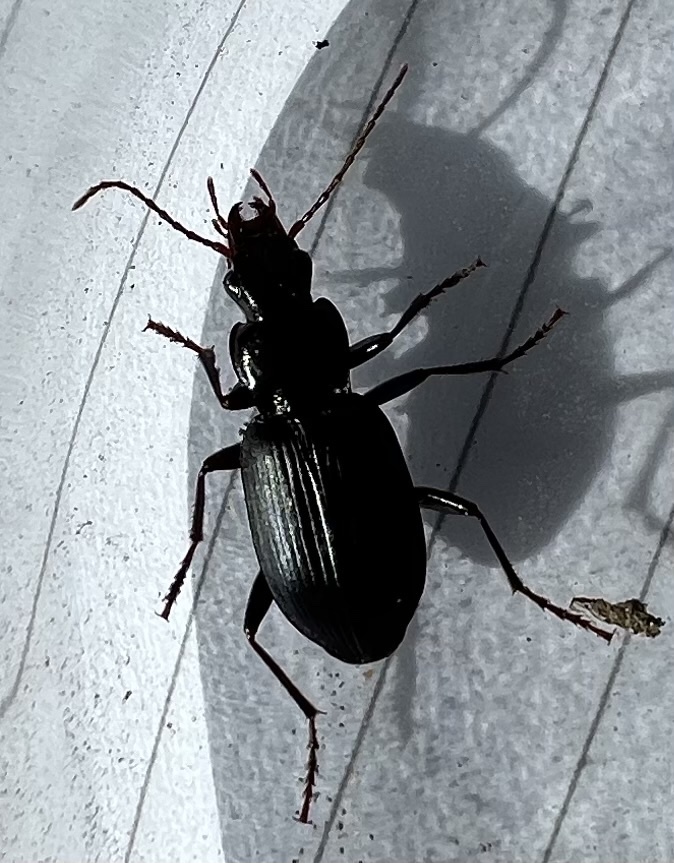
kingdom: Animalia
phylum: Arthropoda
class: Insecta
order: Coleoptera
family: Carabidae
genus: Laemostenus
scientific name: Laemostenus complanatus
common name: Cosmopolitan ground beetle
